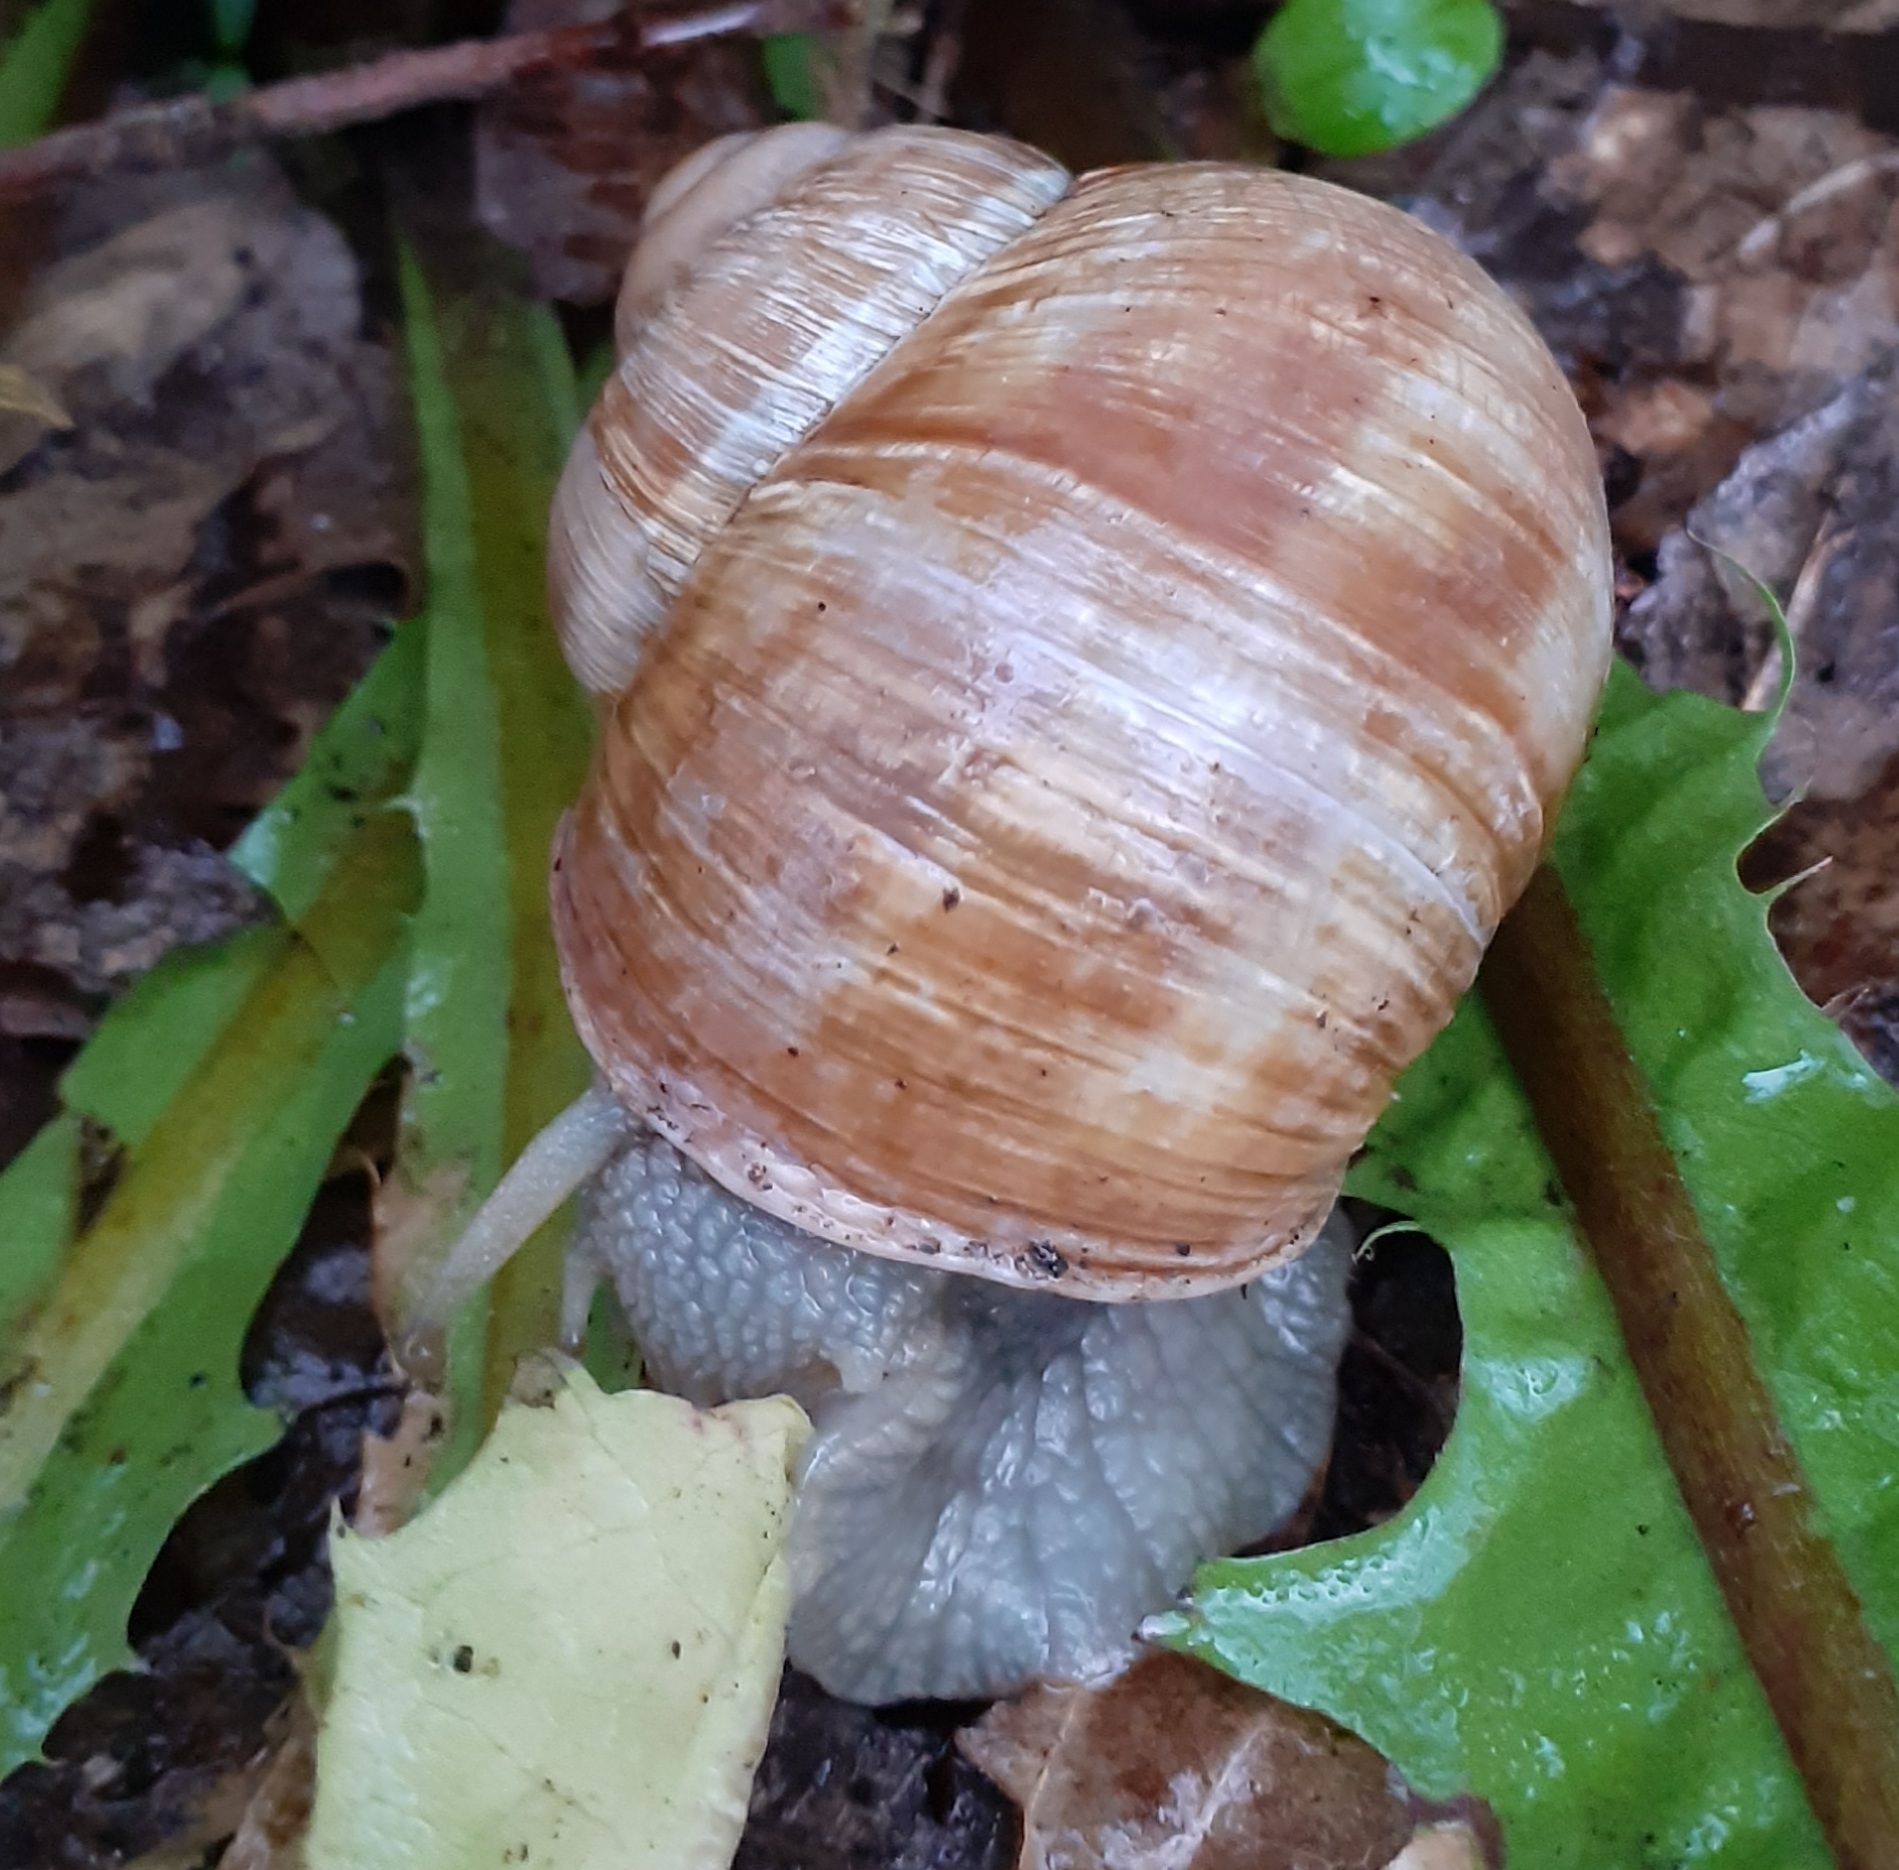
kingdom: Animalia
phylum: Mollusca
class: Gastropoda
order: Stylommatophora
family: Helicidae
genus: Helix
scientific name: Helix pomatia
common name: Roman snail
